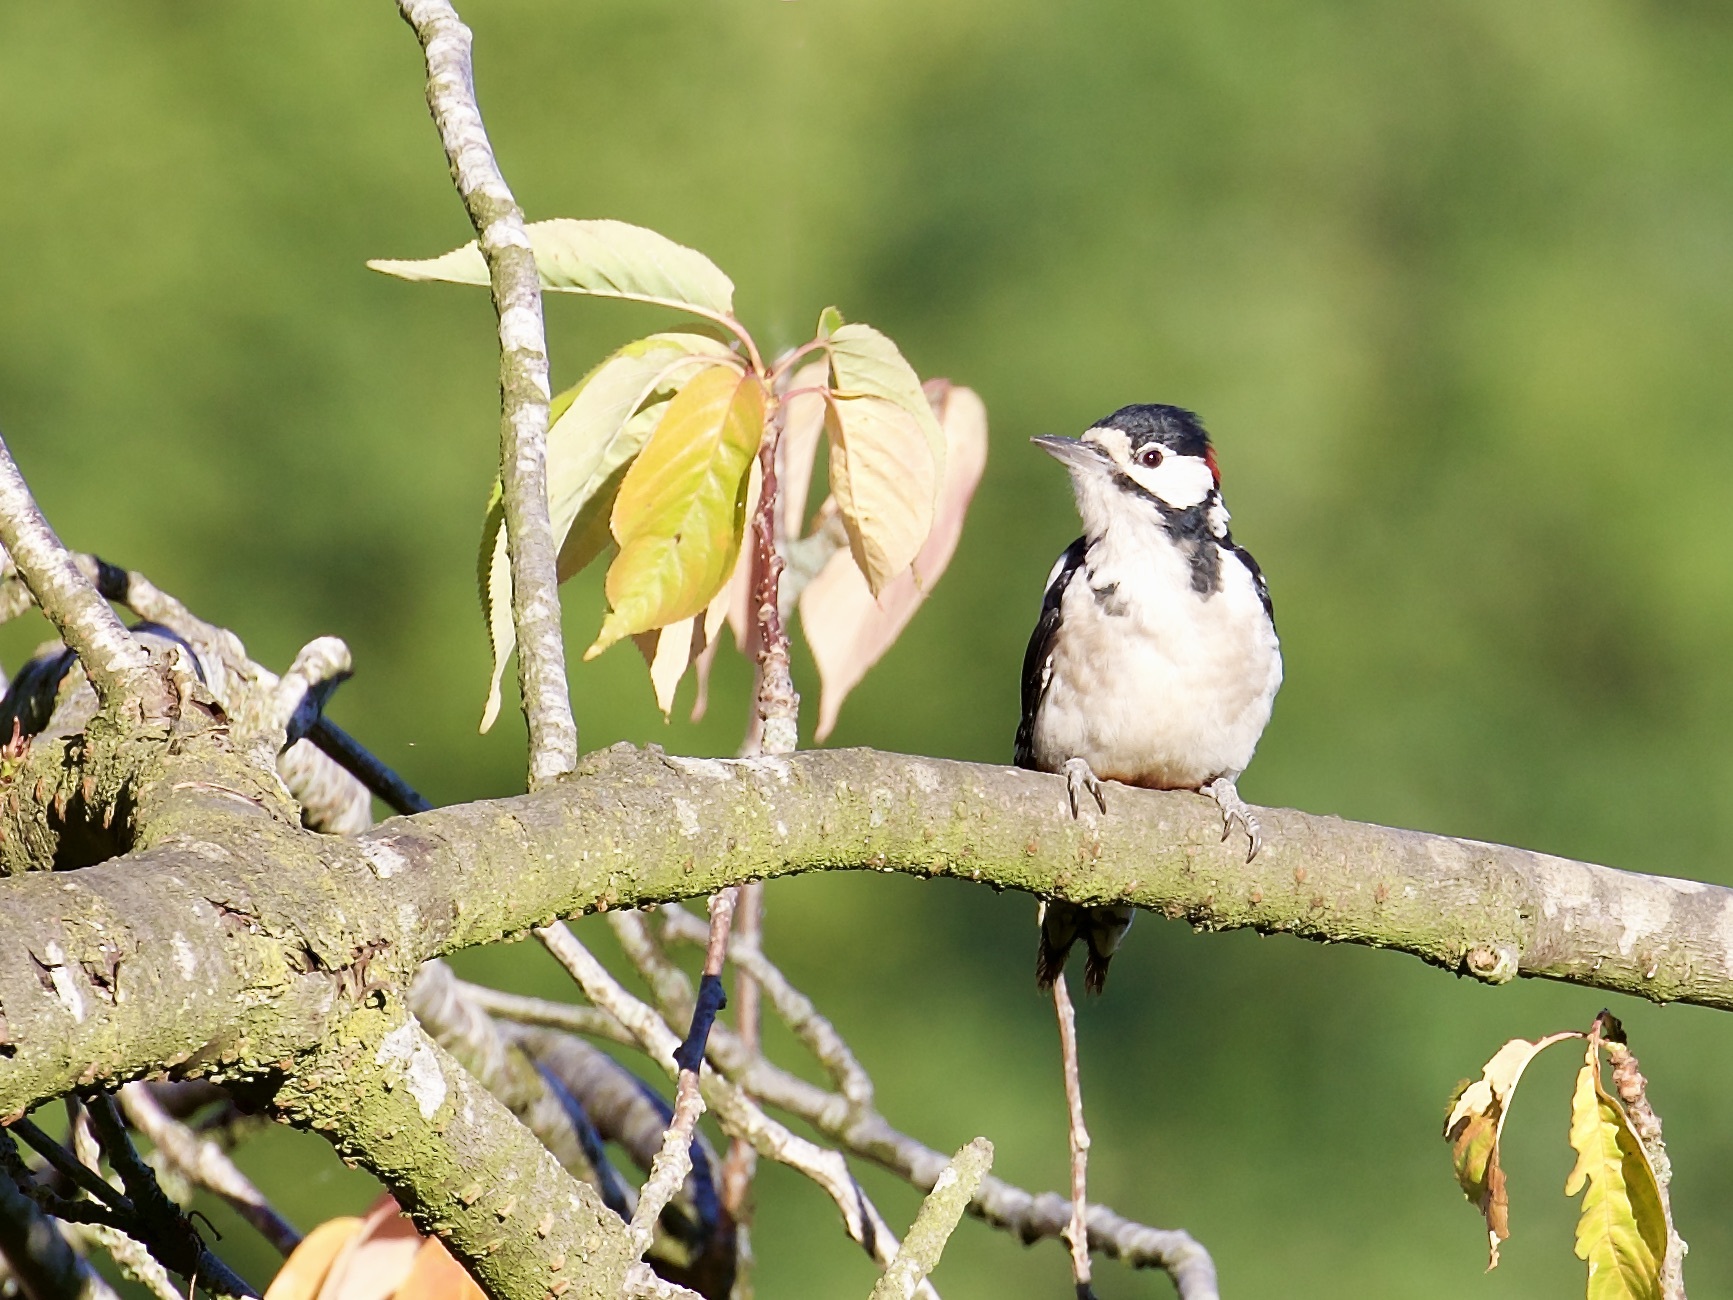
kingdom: Animalia
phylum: Chordata
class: Aves
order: Piciformes
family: Picidae
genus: Dendrocopos
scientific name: Dendrocopos major
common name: Great spotted woodpecker
